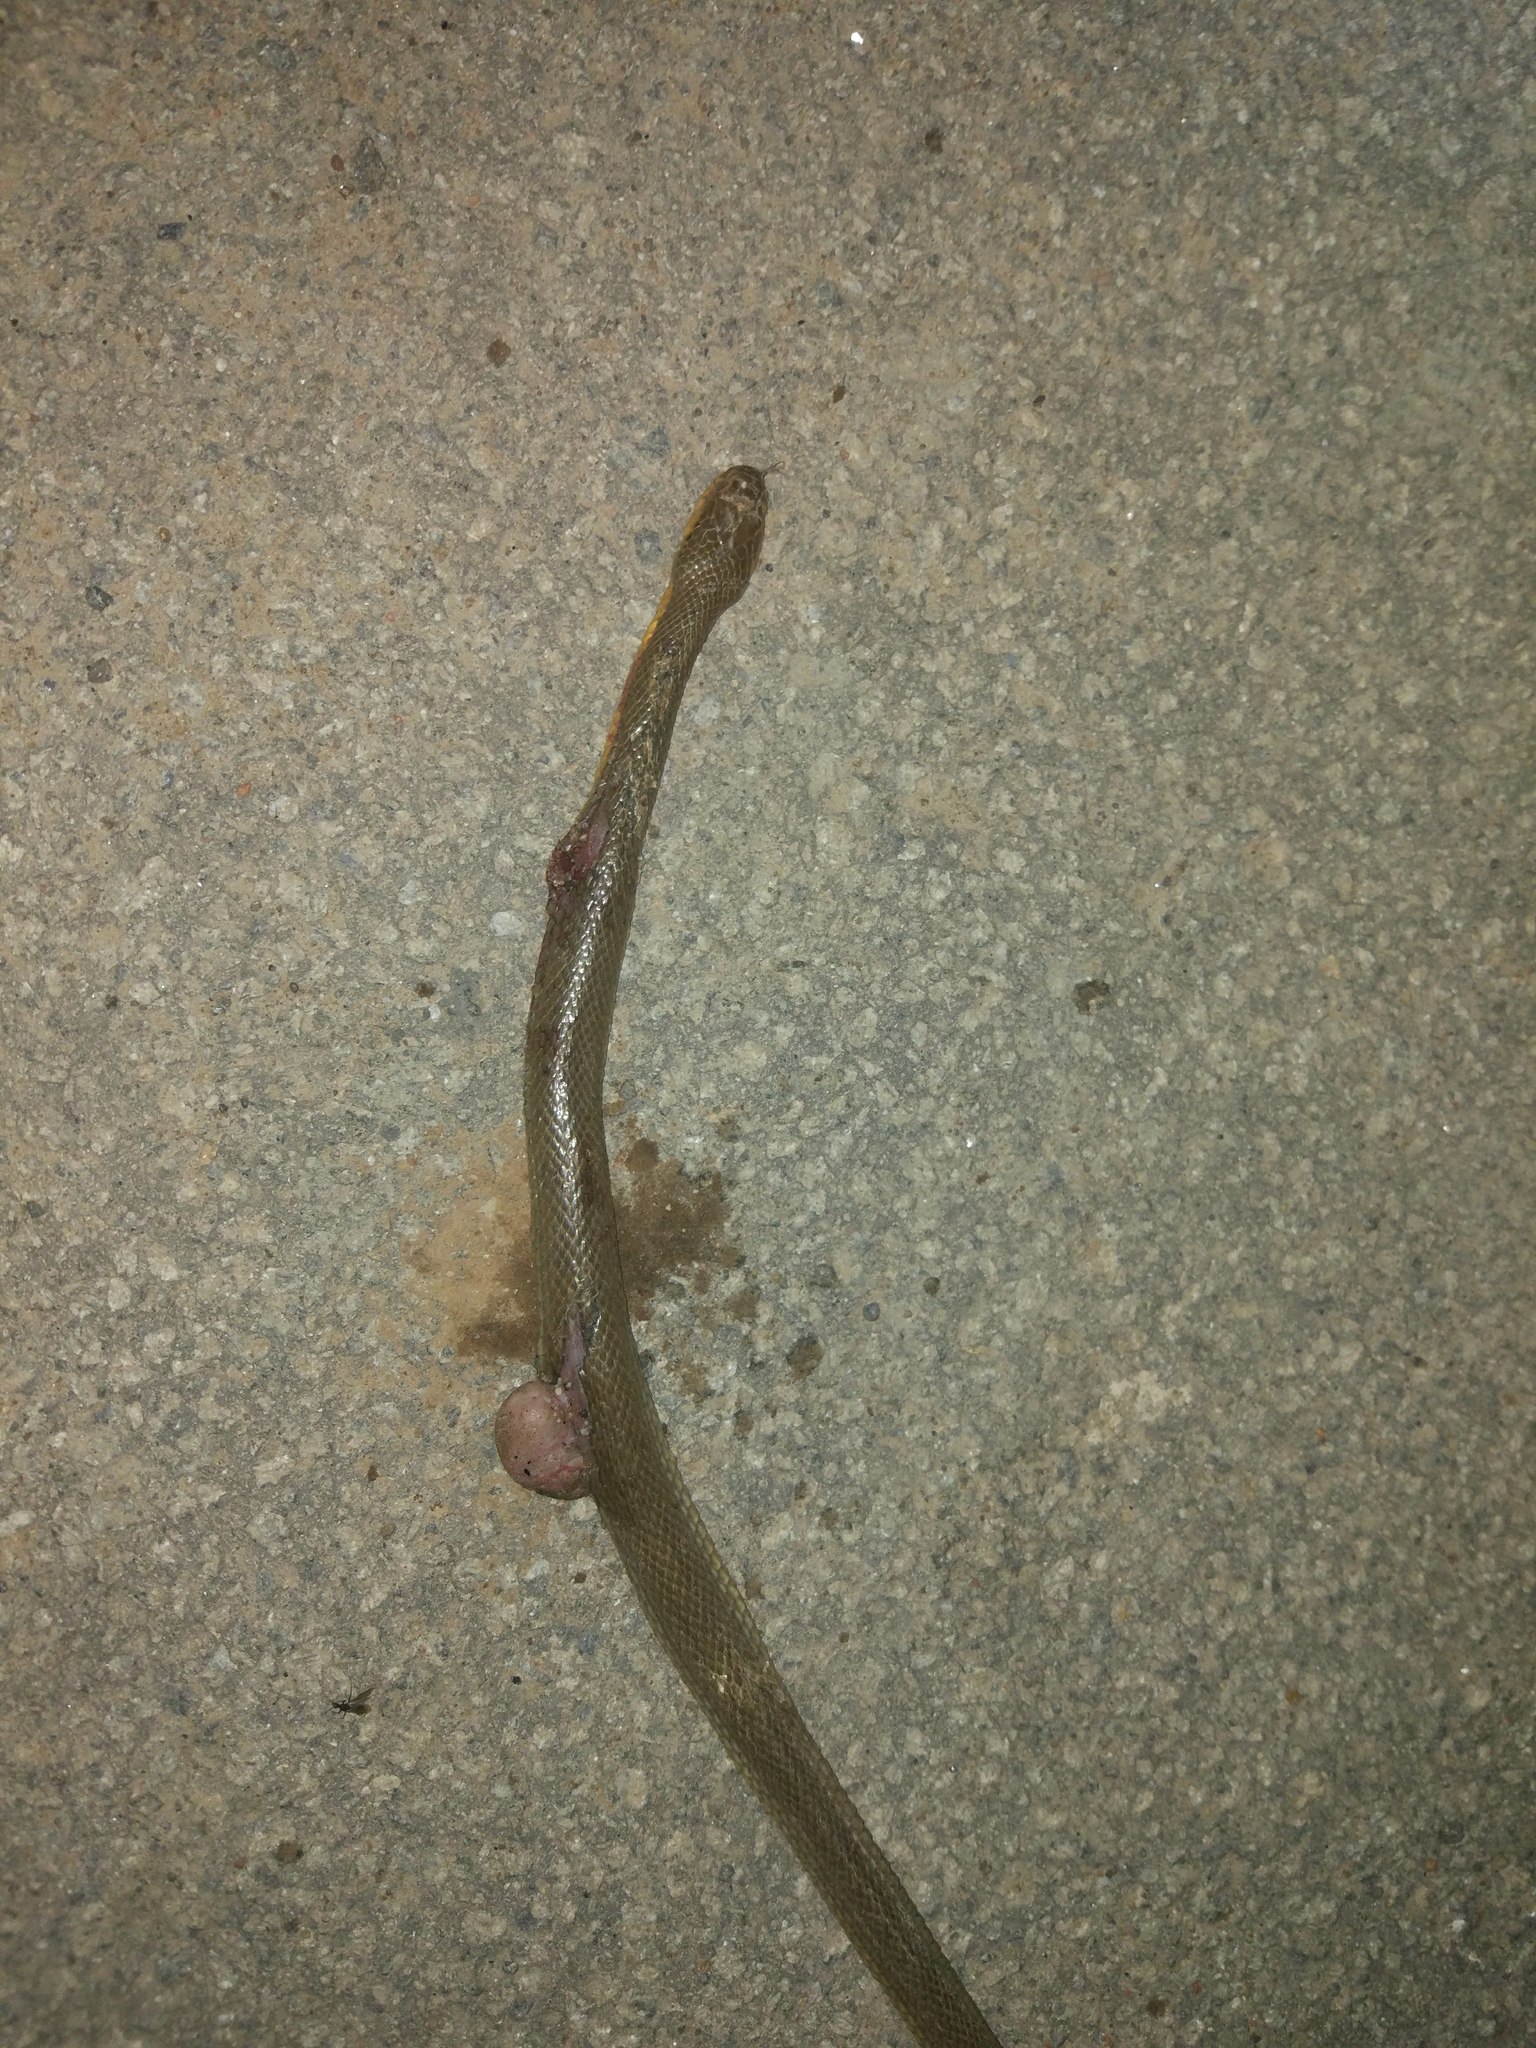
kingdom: Animalia
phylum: Chordata
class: Squamata
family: Colubridae
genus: Atretium
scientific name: Atretium schistosum
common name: Olive keelback wart snake
